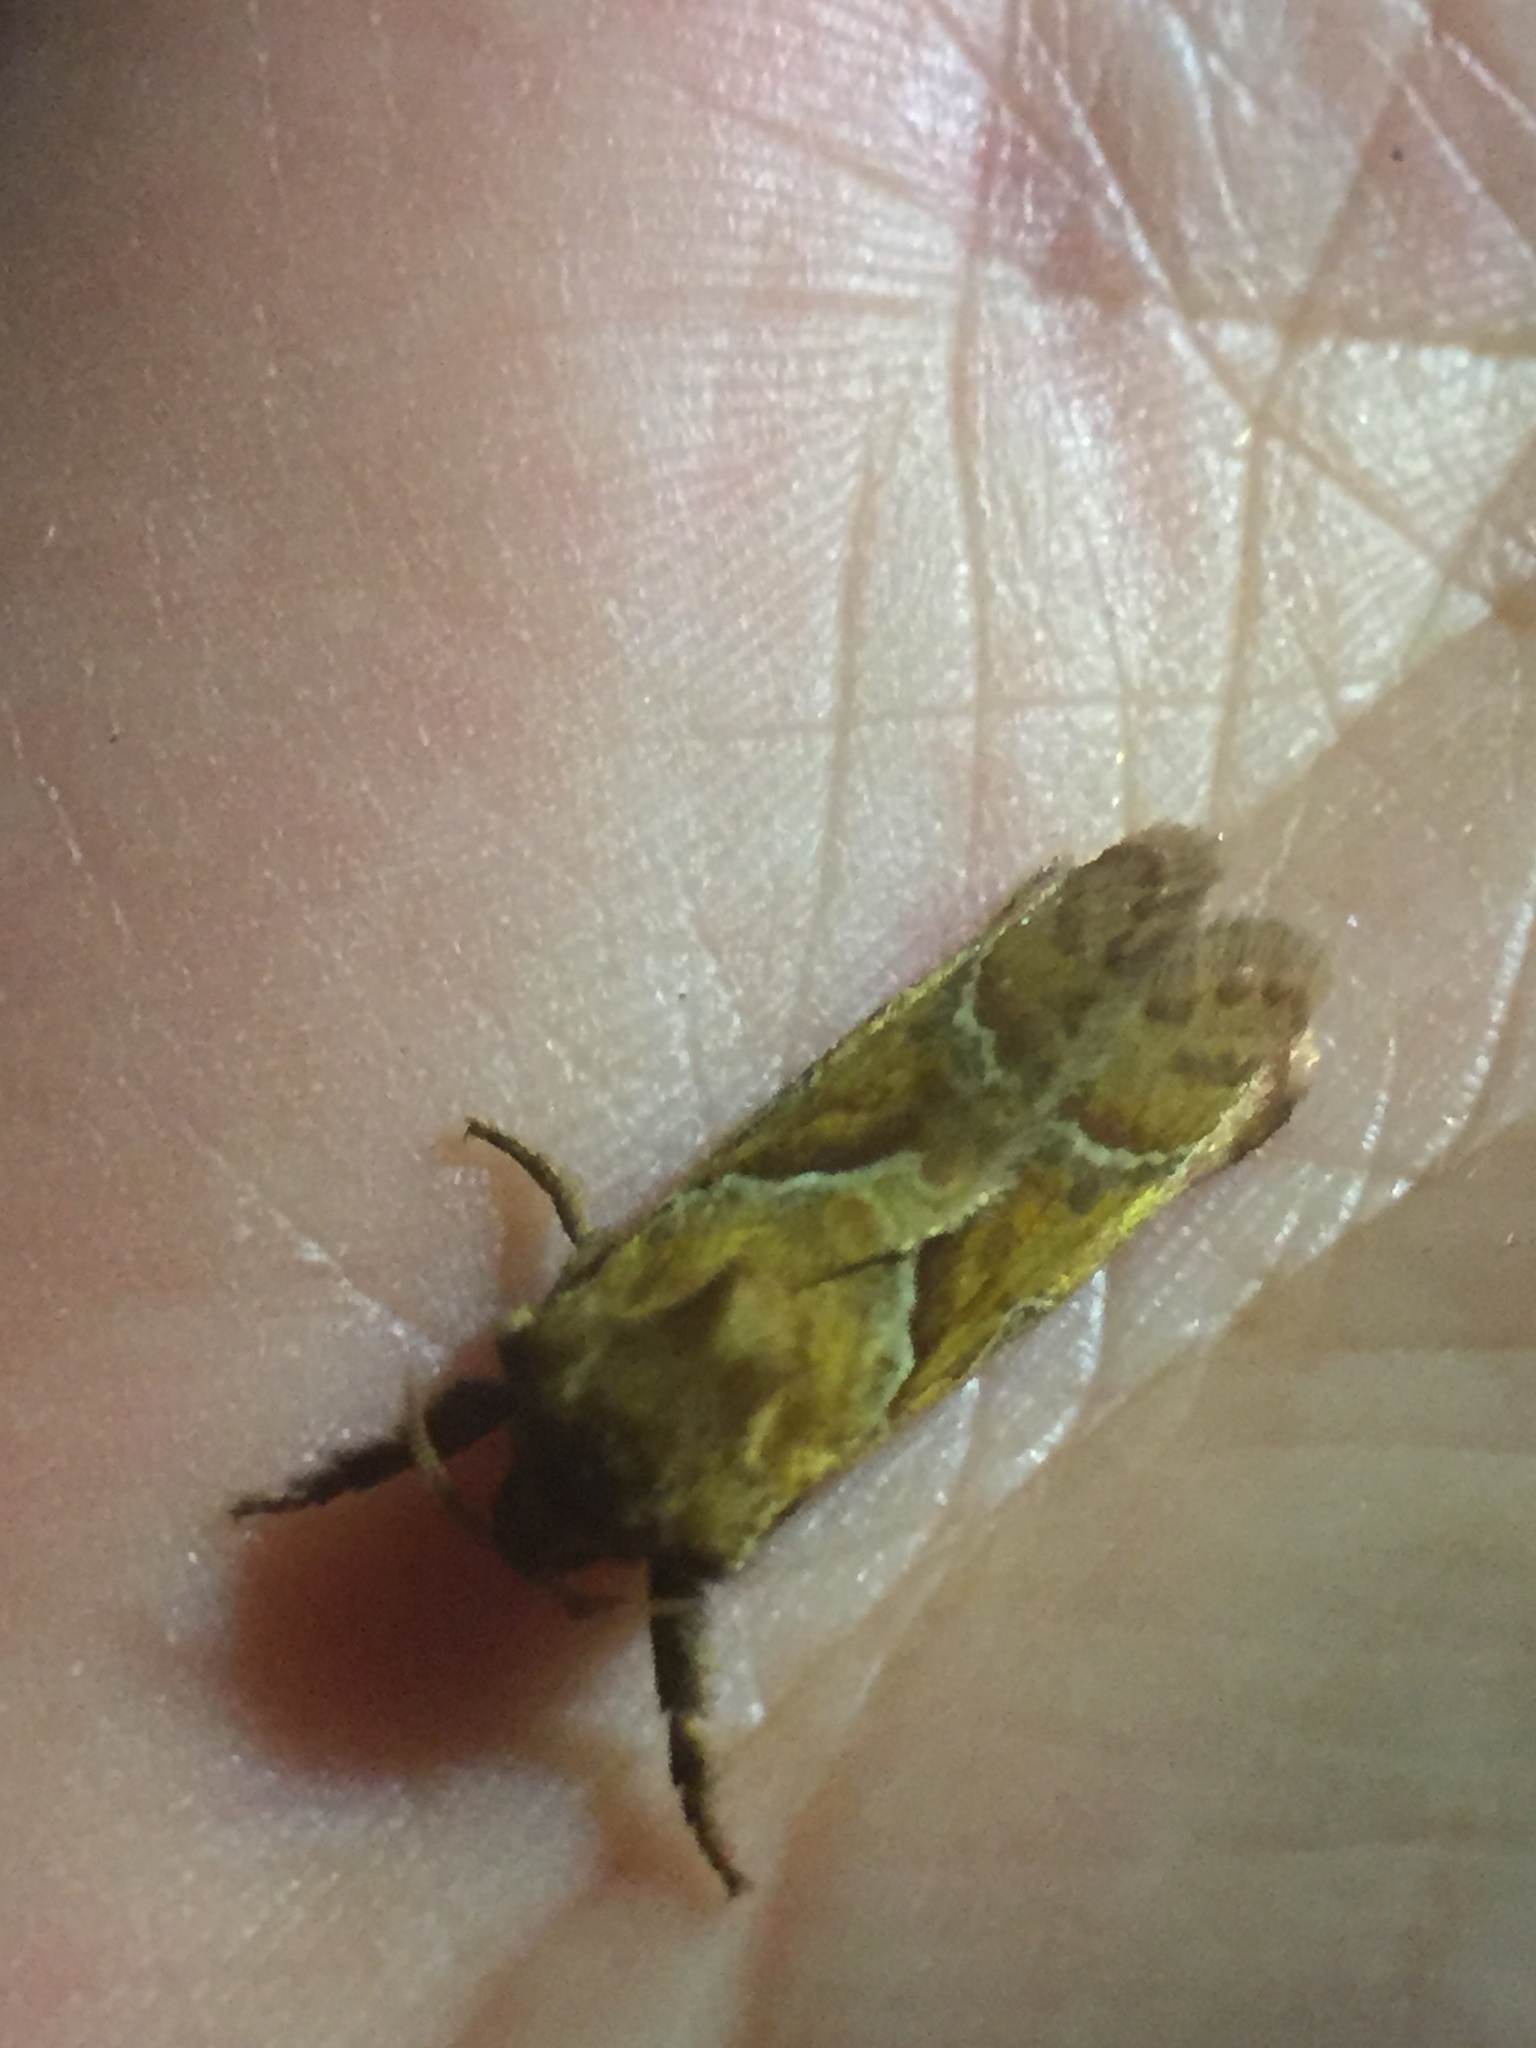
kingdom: Animalia
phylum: Arthropoda
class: Insecta
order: Lepidoptera
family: Hepialidae
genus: Triodia
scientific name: Triodia sylvina
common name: Orange swift
